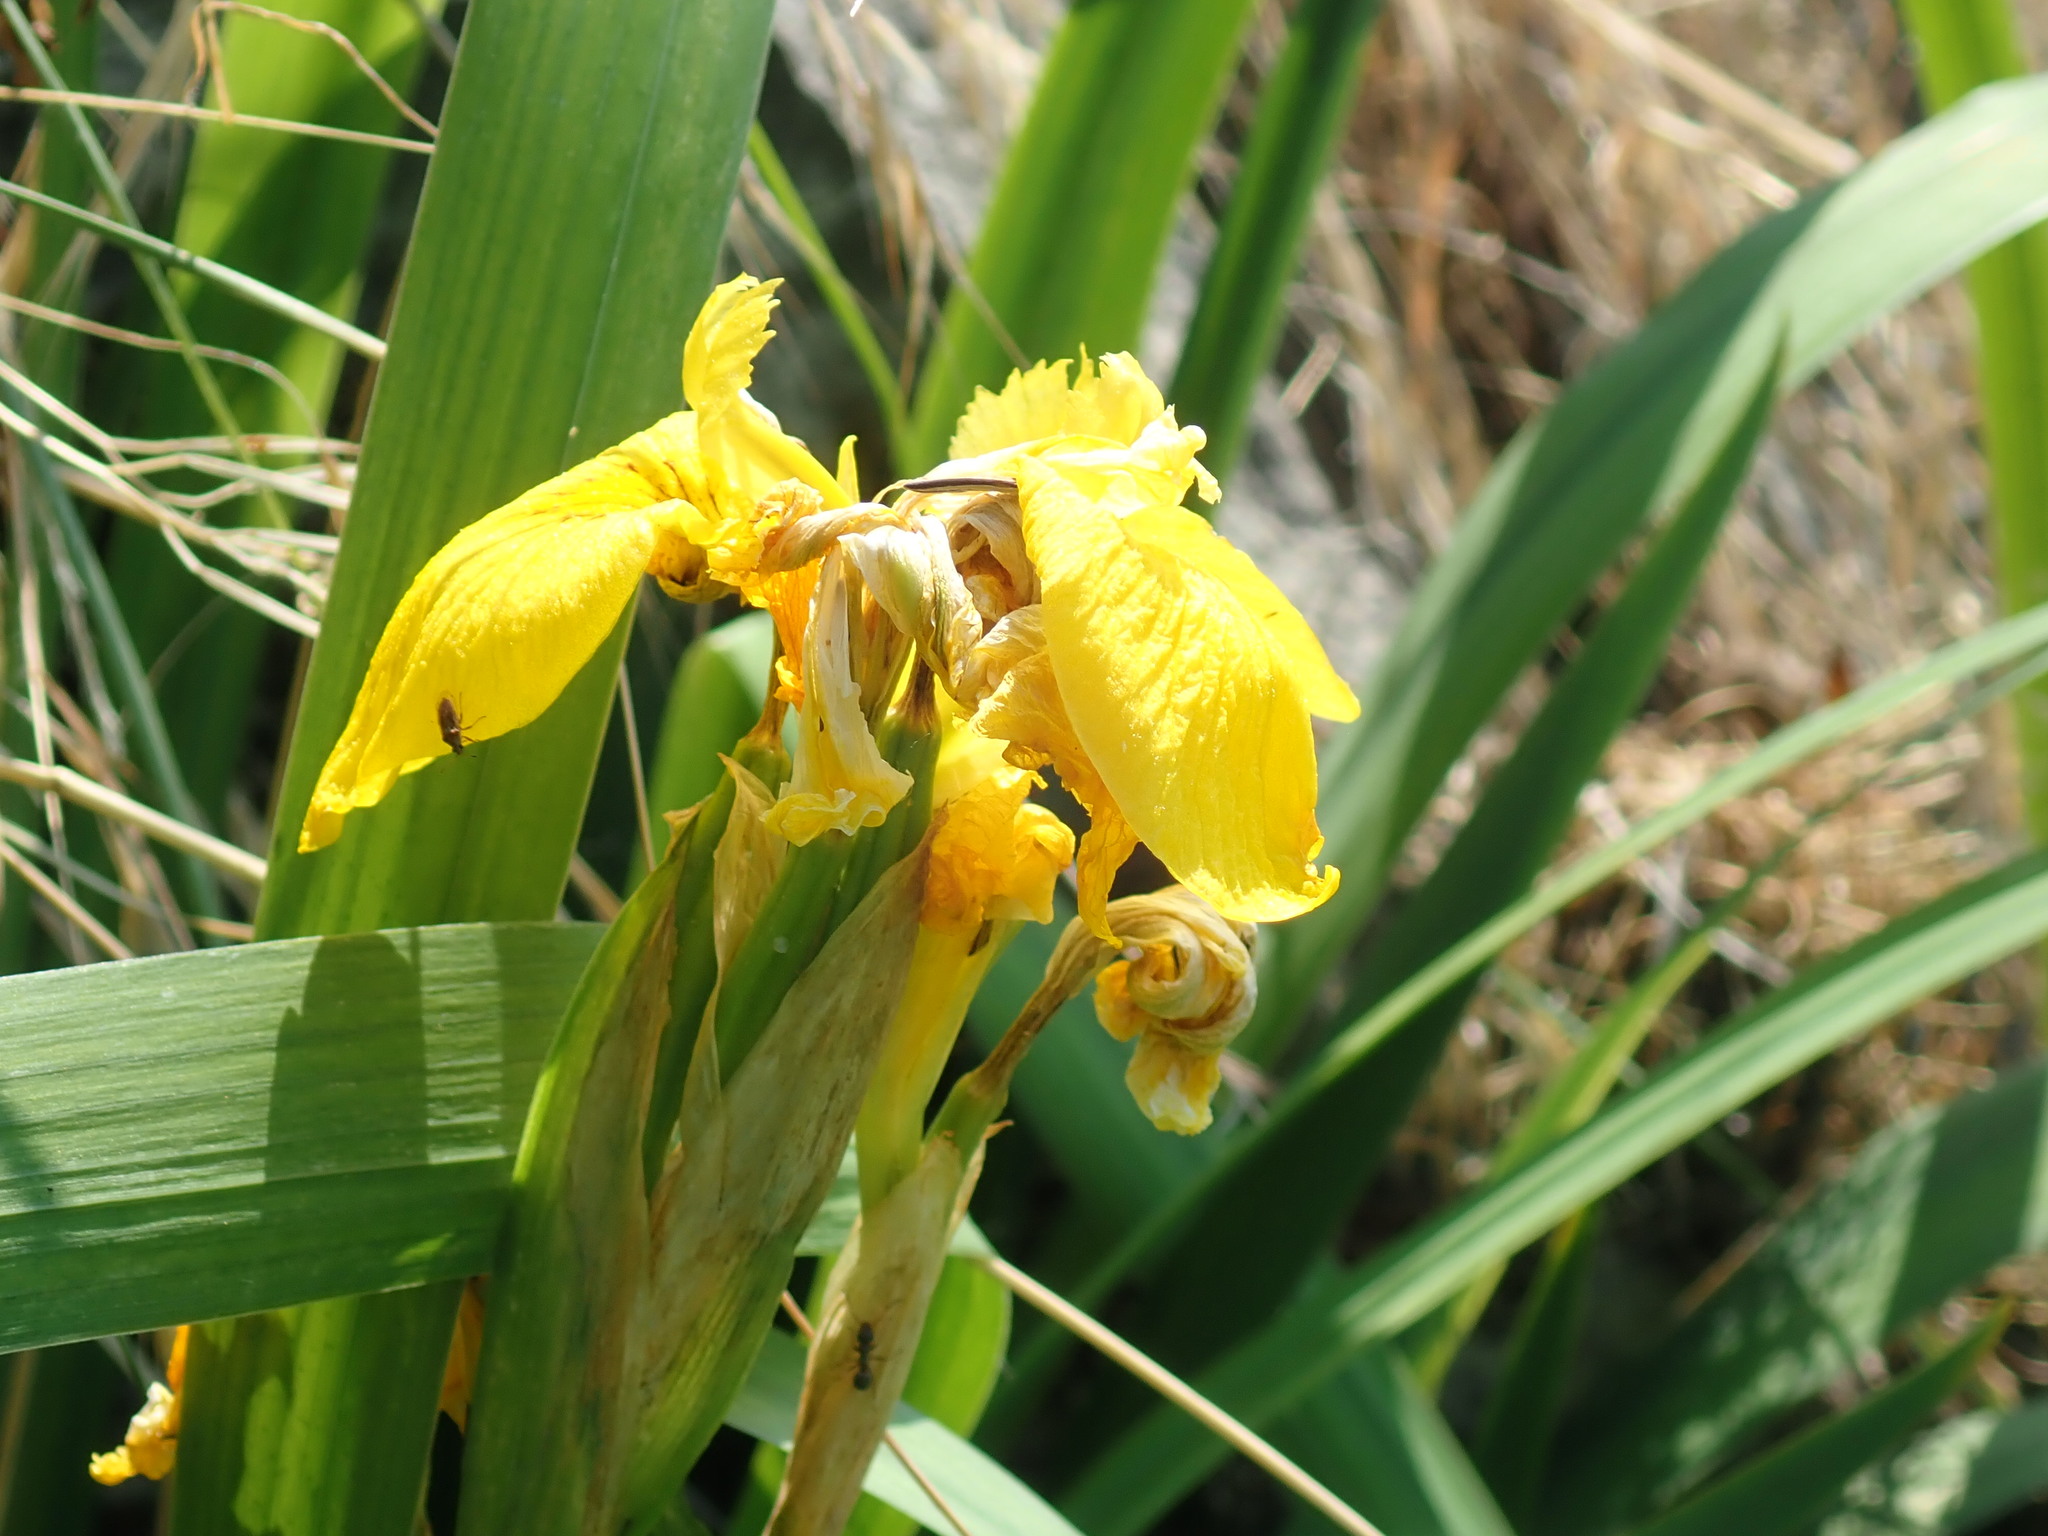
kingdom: Plantae
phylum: Tracheophyta
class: Liliopsida
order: Asparagales
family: Iridaceae
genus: Iris
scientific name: Iris pseudacorus
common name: Yellow flag
